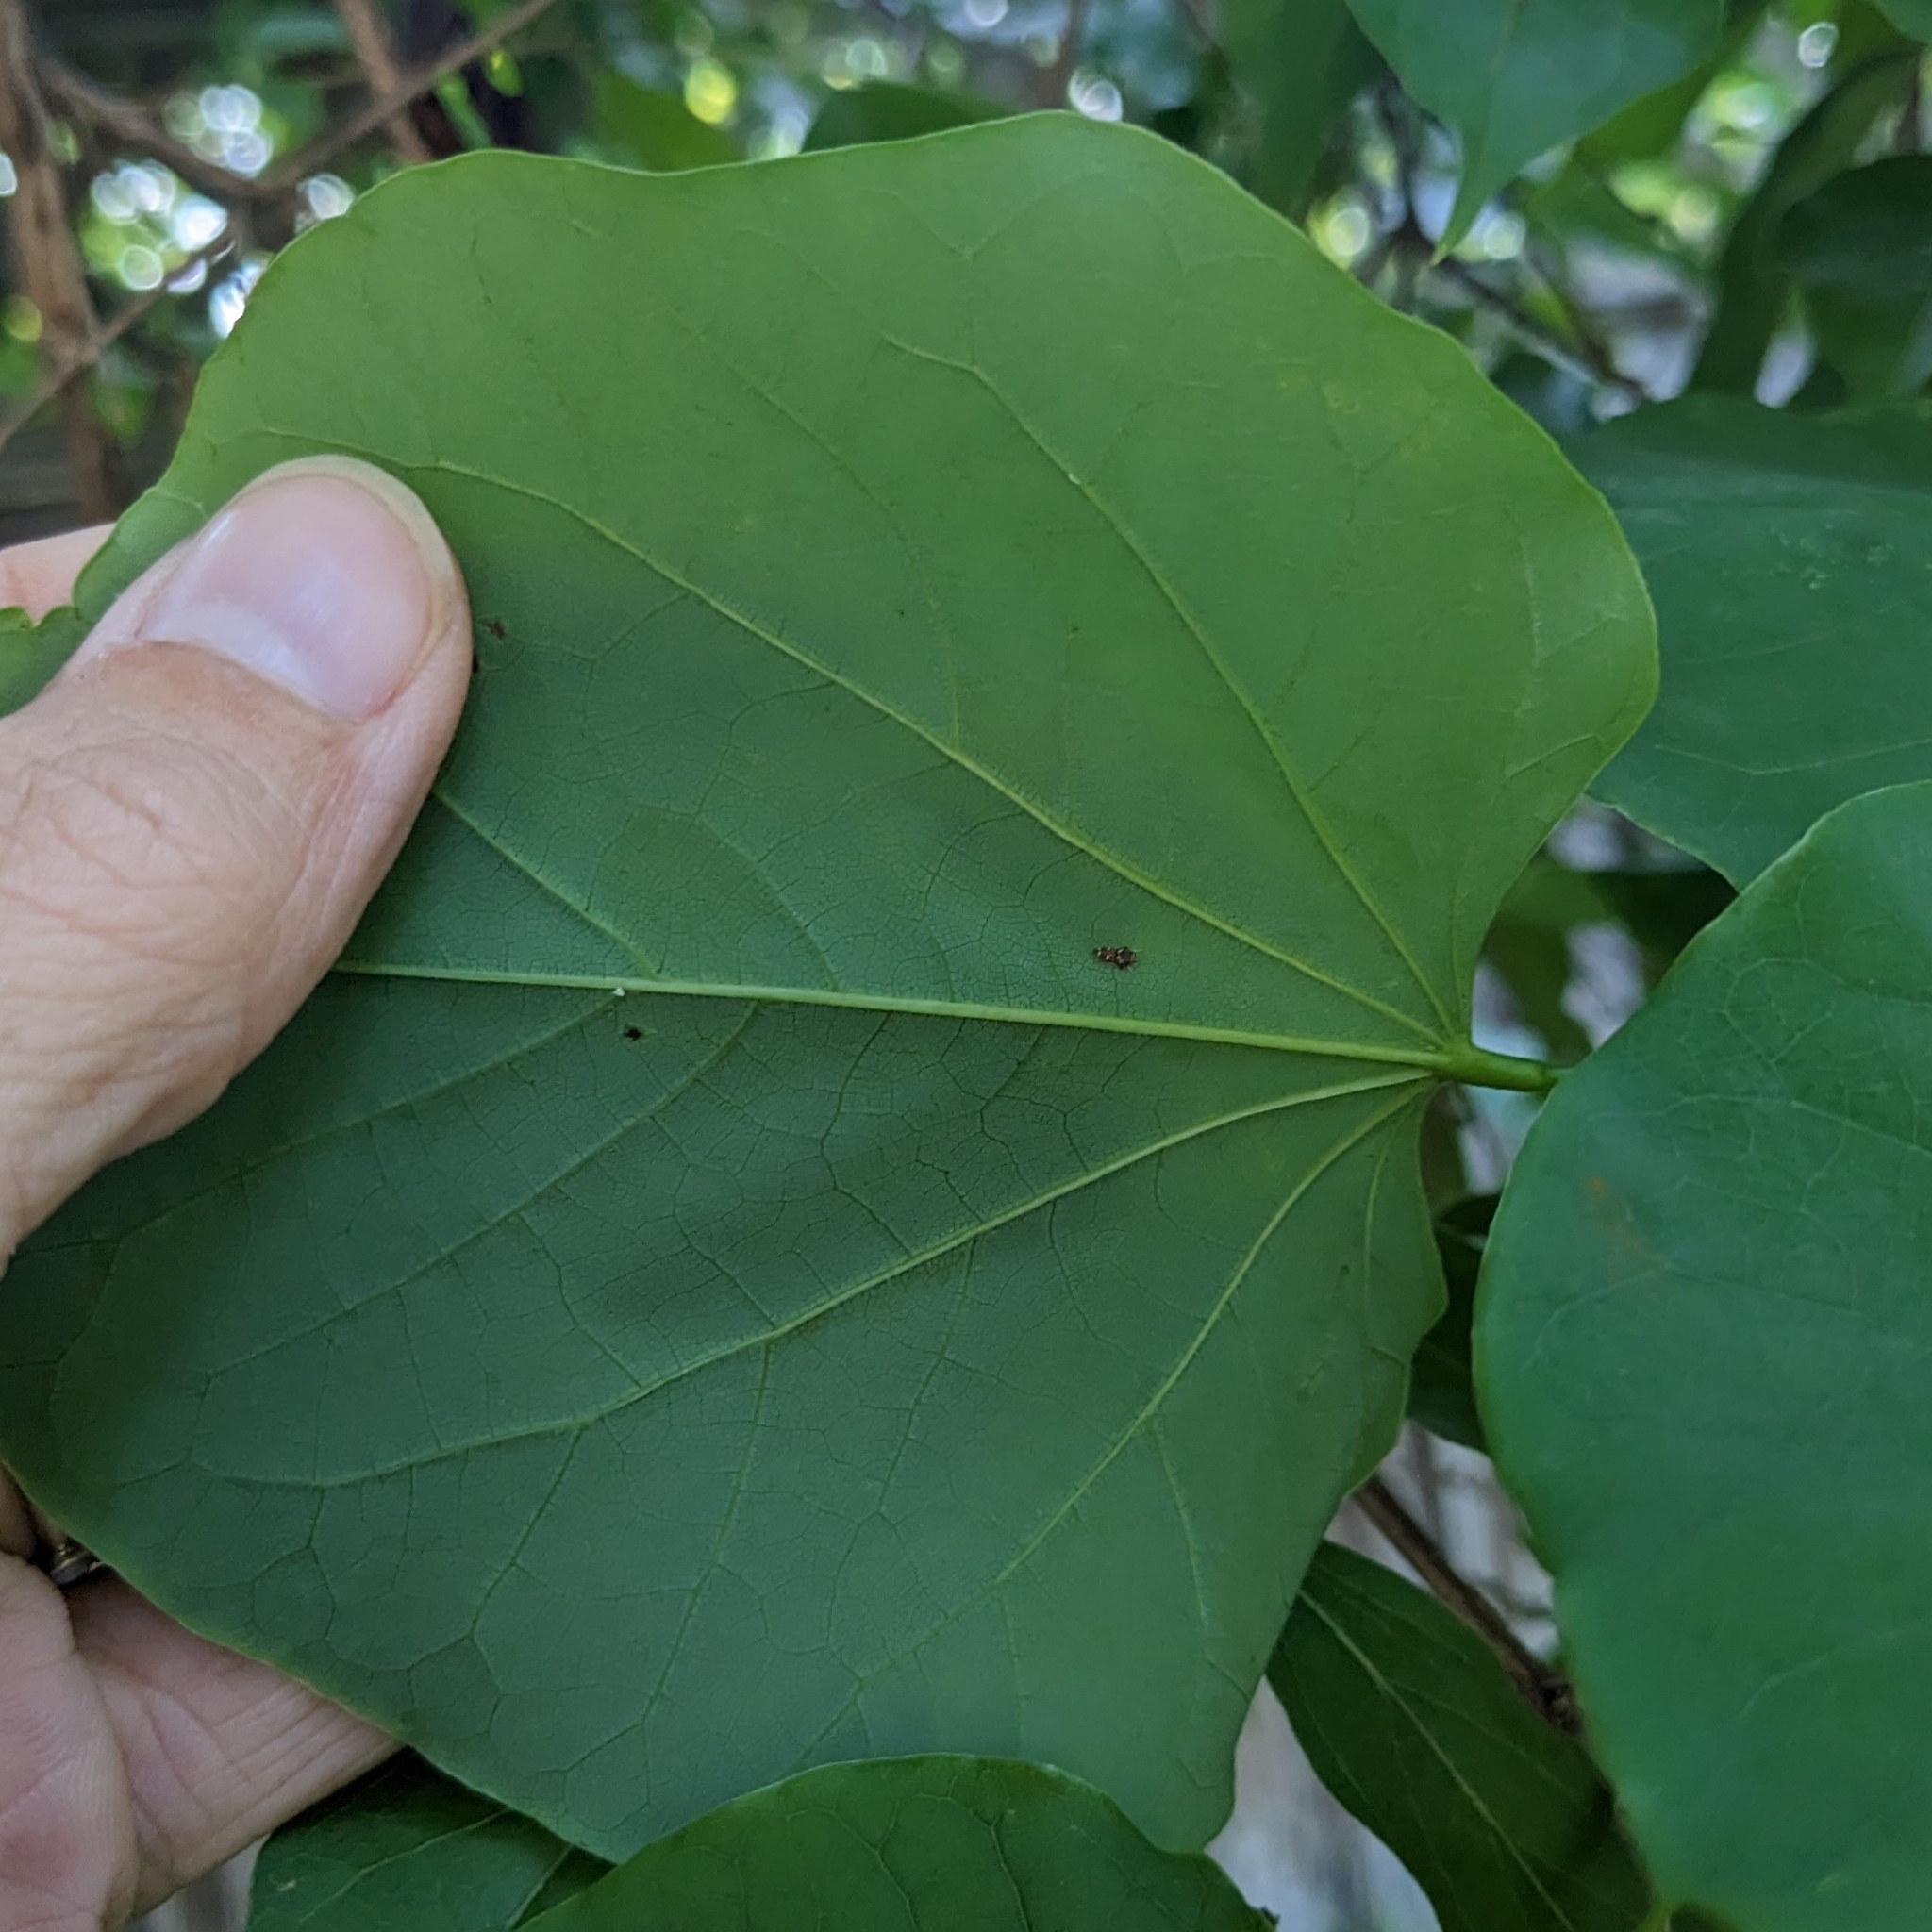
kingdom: Animalia
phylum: Arthropoda
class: Insecta
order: Hemiptera
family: Cicadellidae
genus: Orientus
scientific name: Orientus ishidae
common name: Japanese leafhopper
